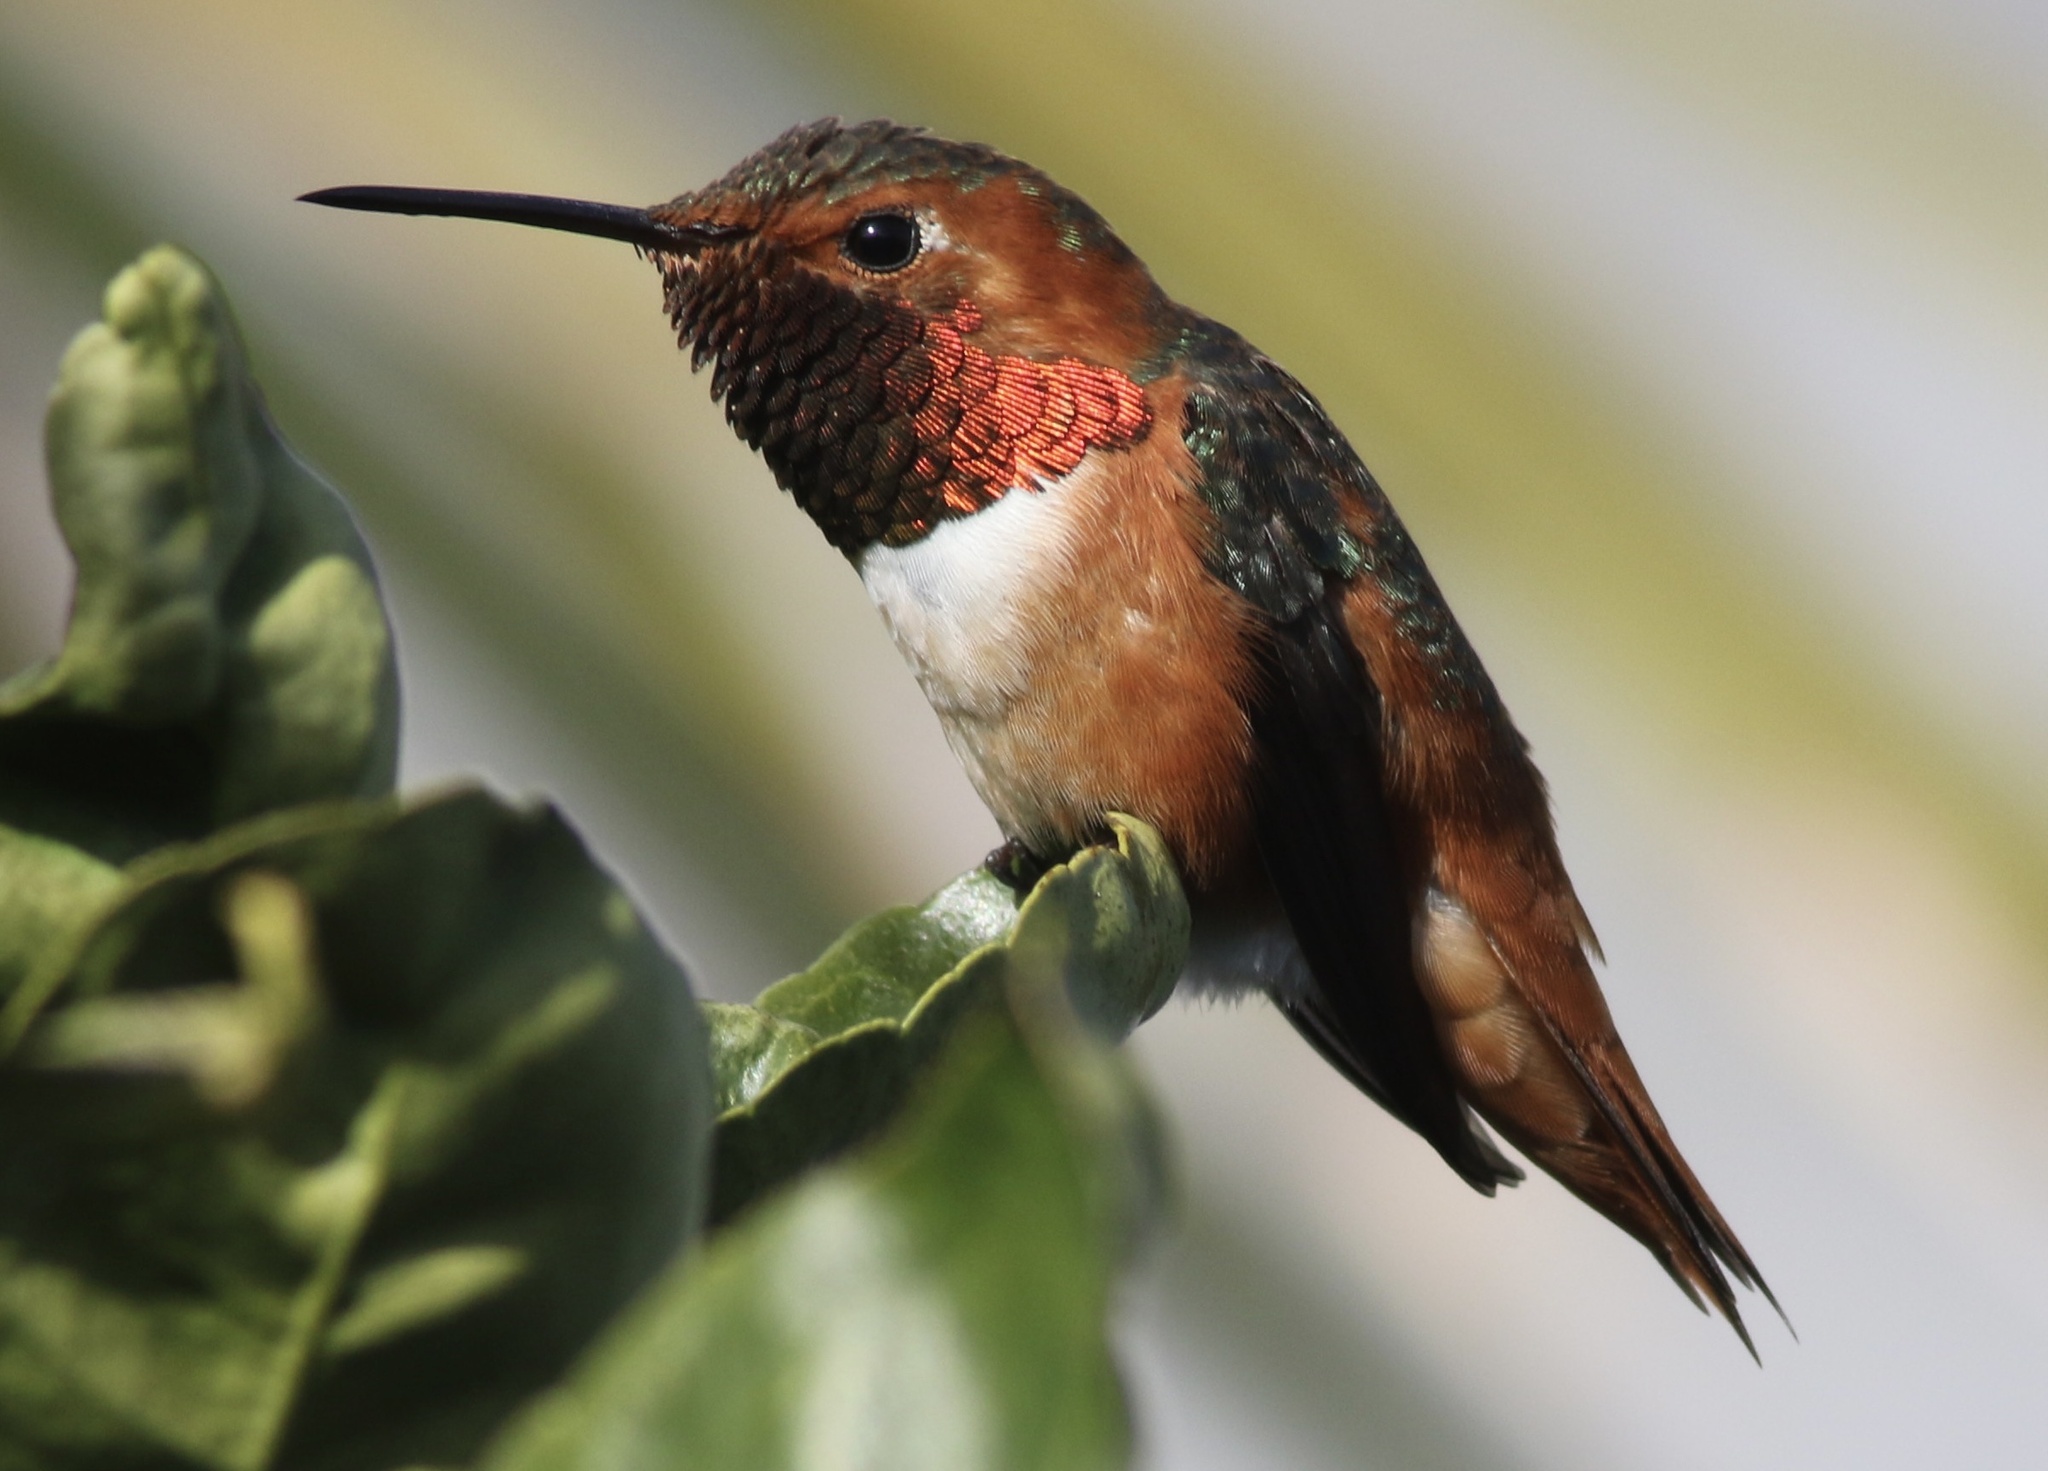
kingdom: Animalia
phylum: Chordata
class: Aves
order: Apodiformes
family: Trochilidae
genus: Selasphorus
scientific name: Selasphorus sasin
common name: Allen's hummingbird
